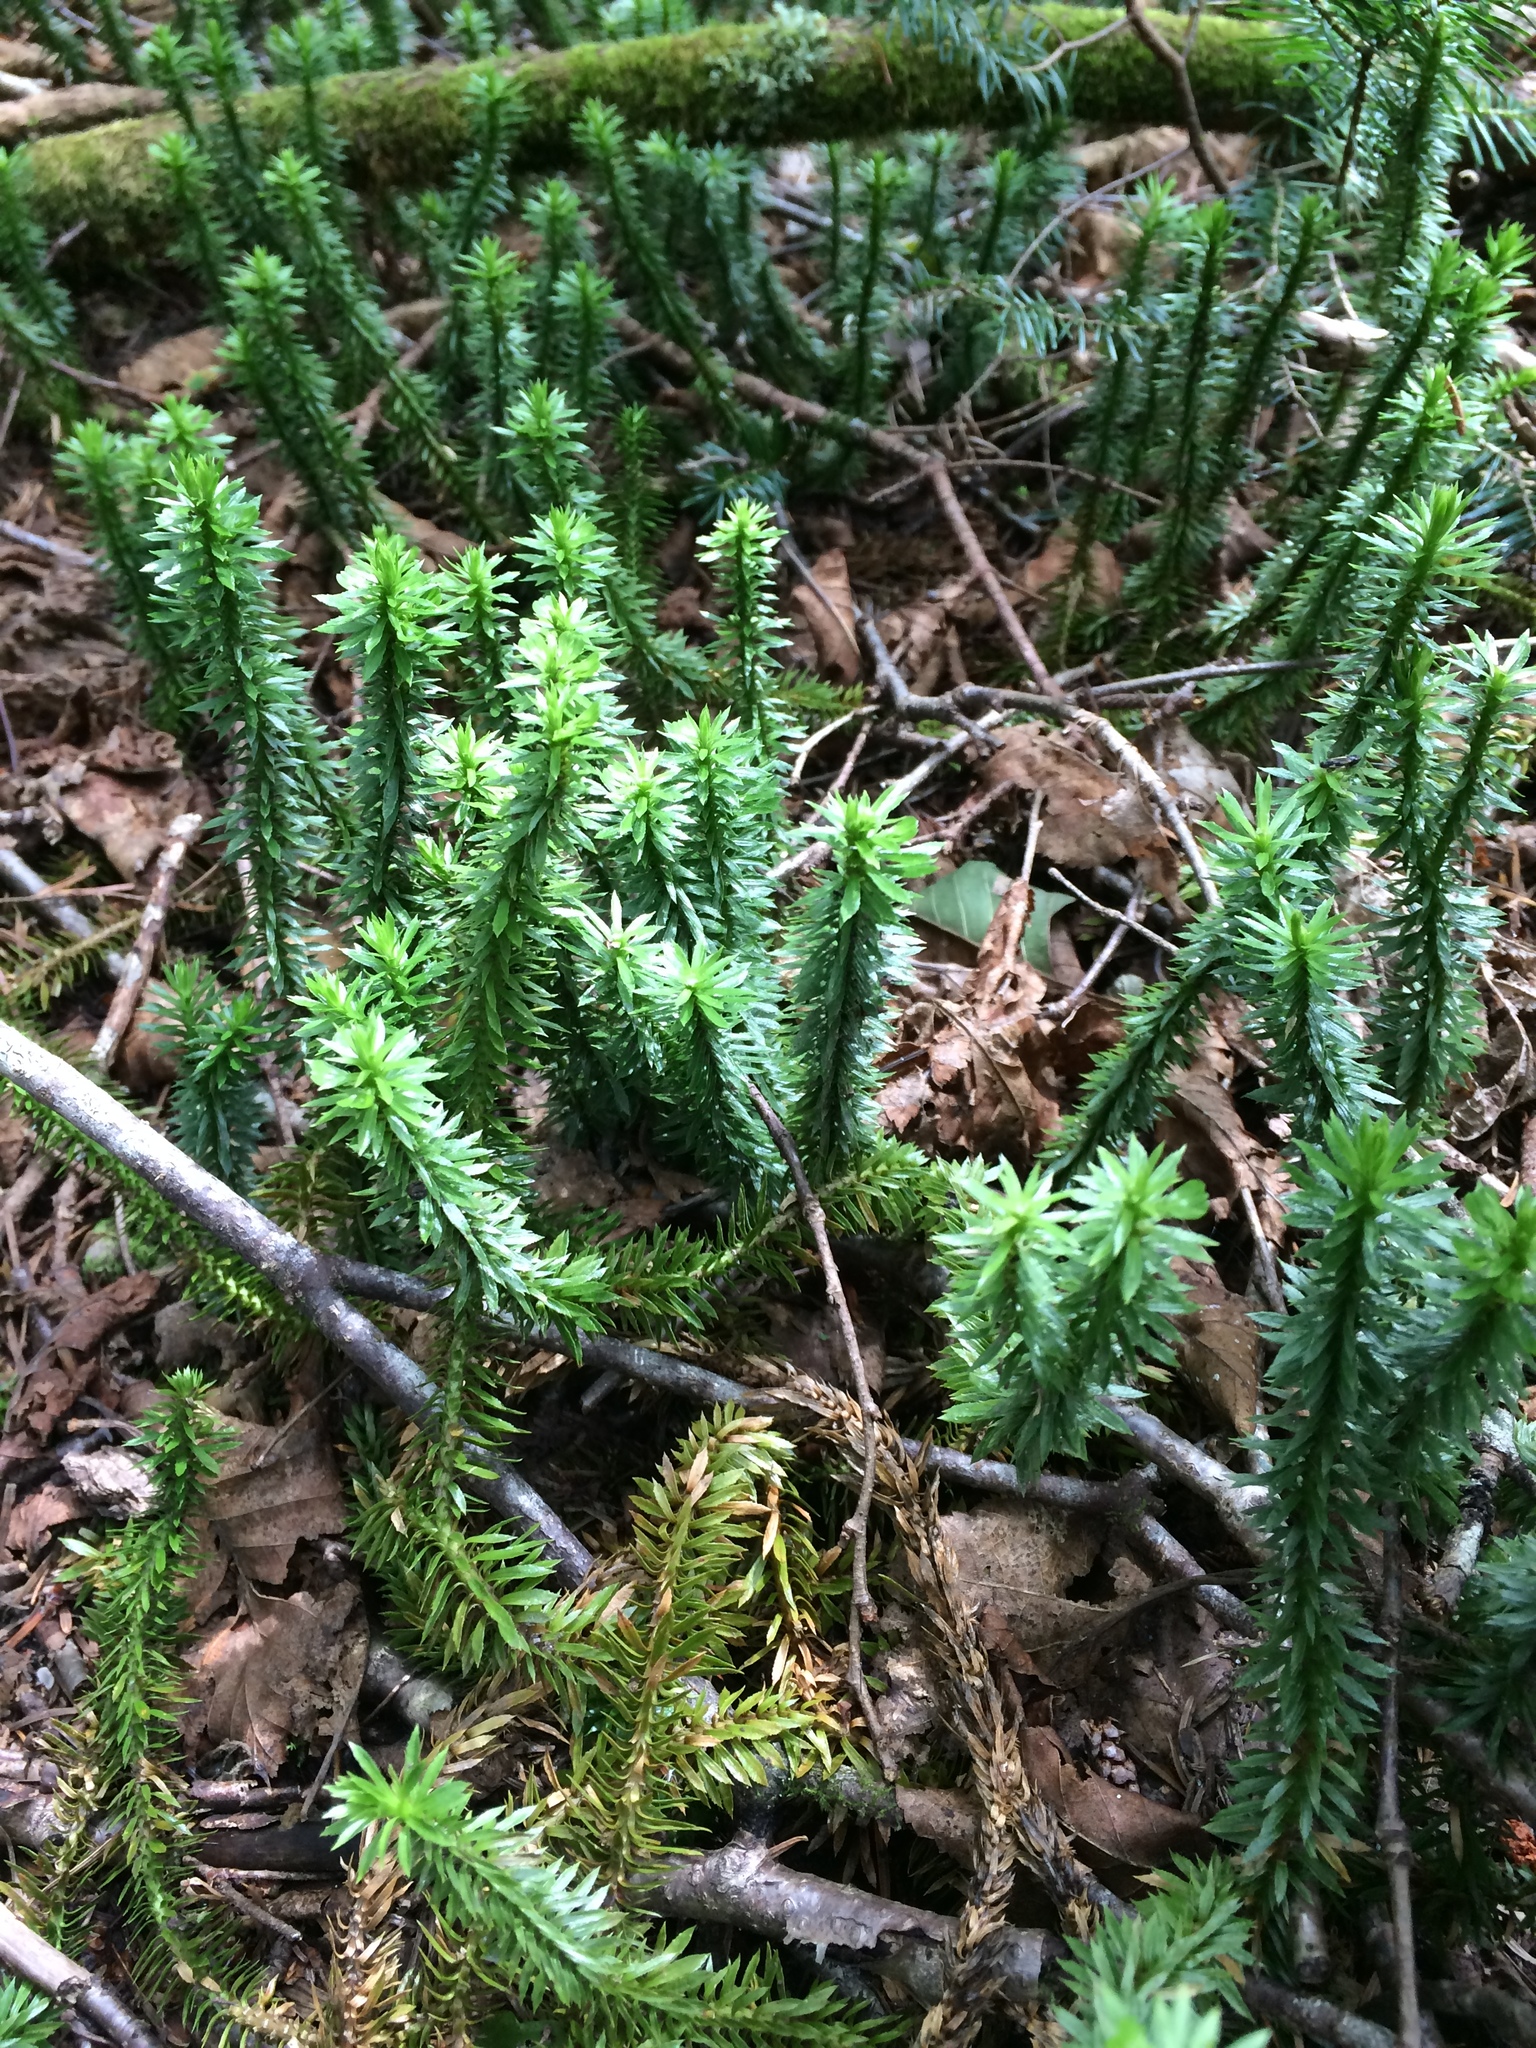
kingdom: Plantae
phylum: Tracheophyta
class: Lycopodiopsida
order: Lycopodiales
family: Lycopodiaceae
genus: Huperzia
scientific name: Huperzia lucidula
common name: Shining clubmoss
